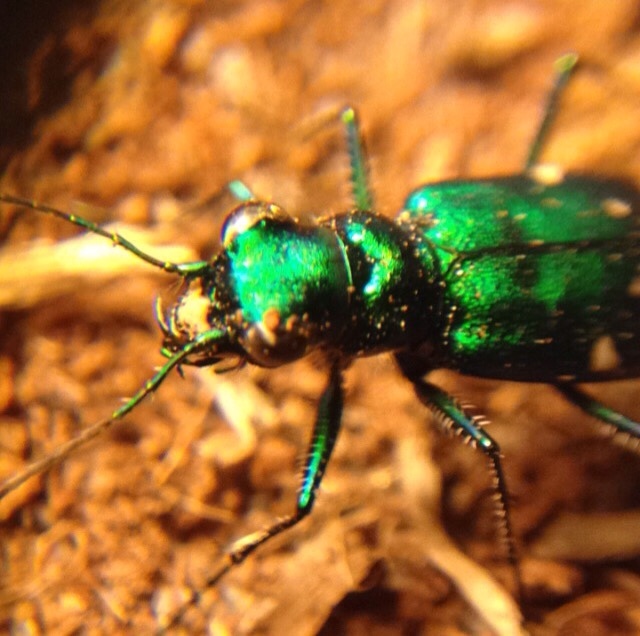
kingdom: Animalia
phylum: Arthropoda
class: Insecta
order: Coleoptera
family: Carabidae
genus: Cicindela
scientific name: Cicindela sexguttata
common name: Six-spotted tiger beetle
